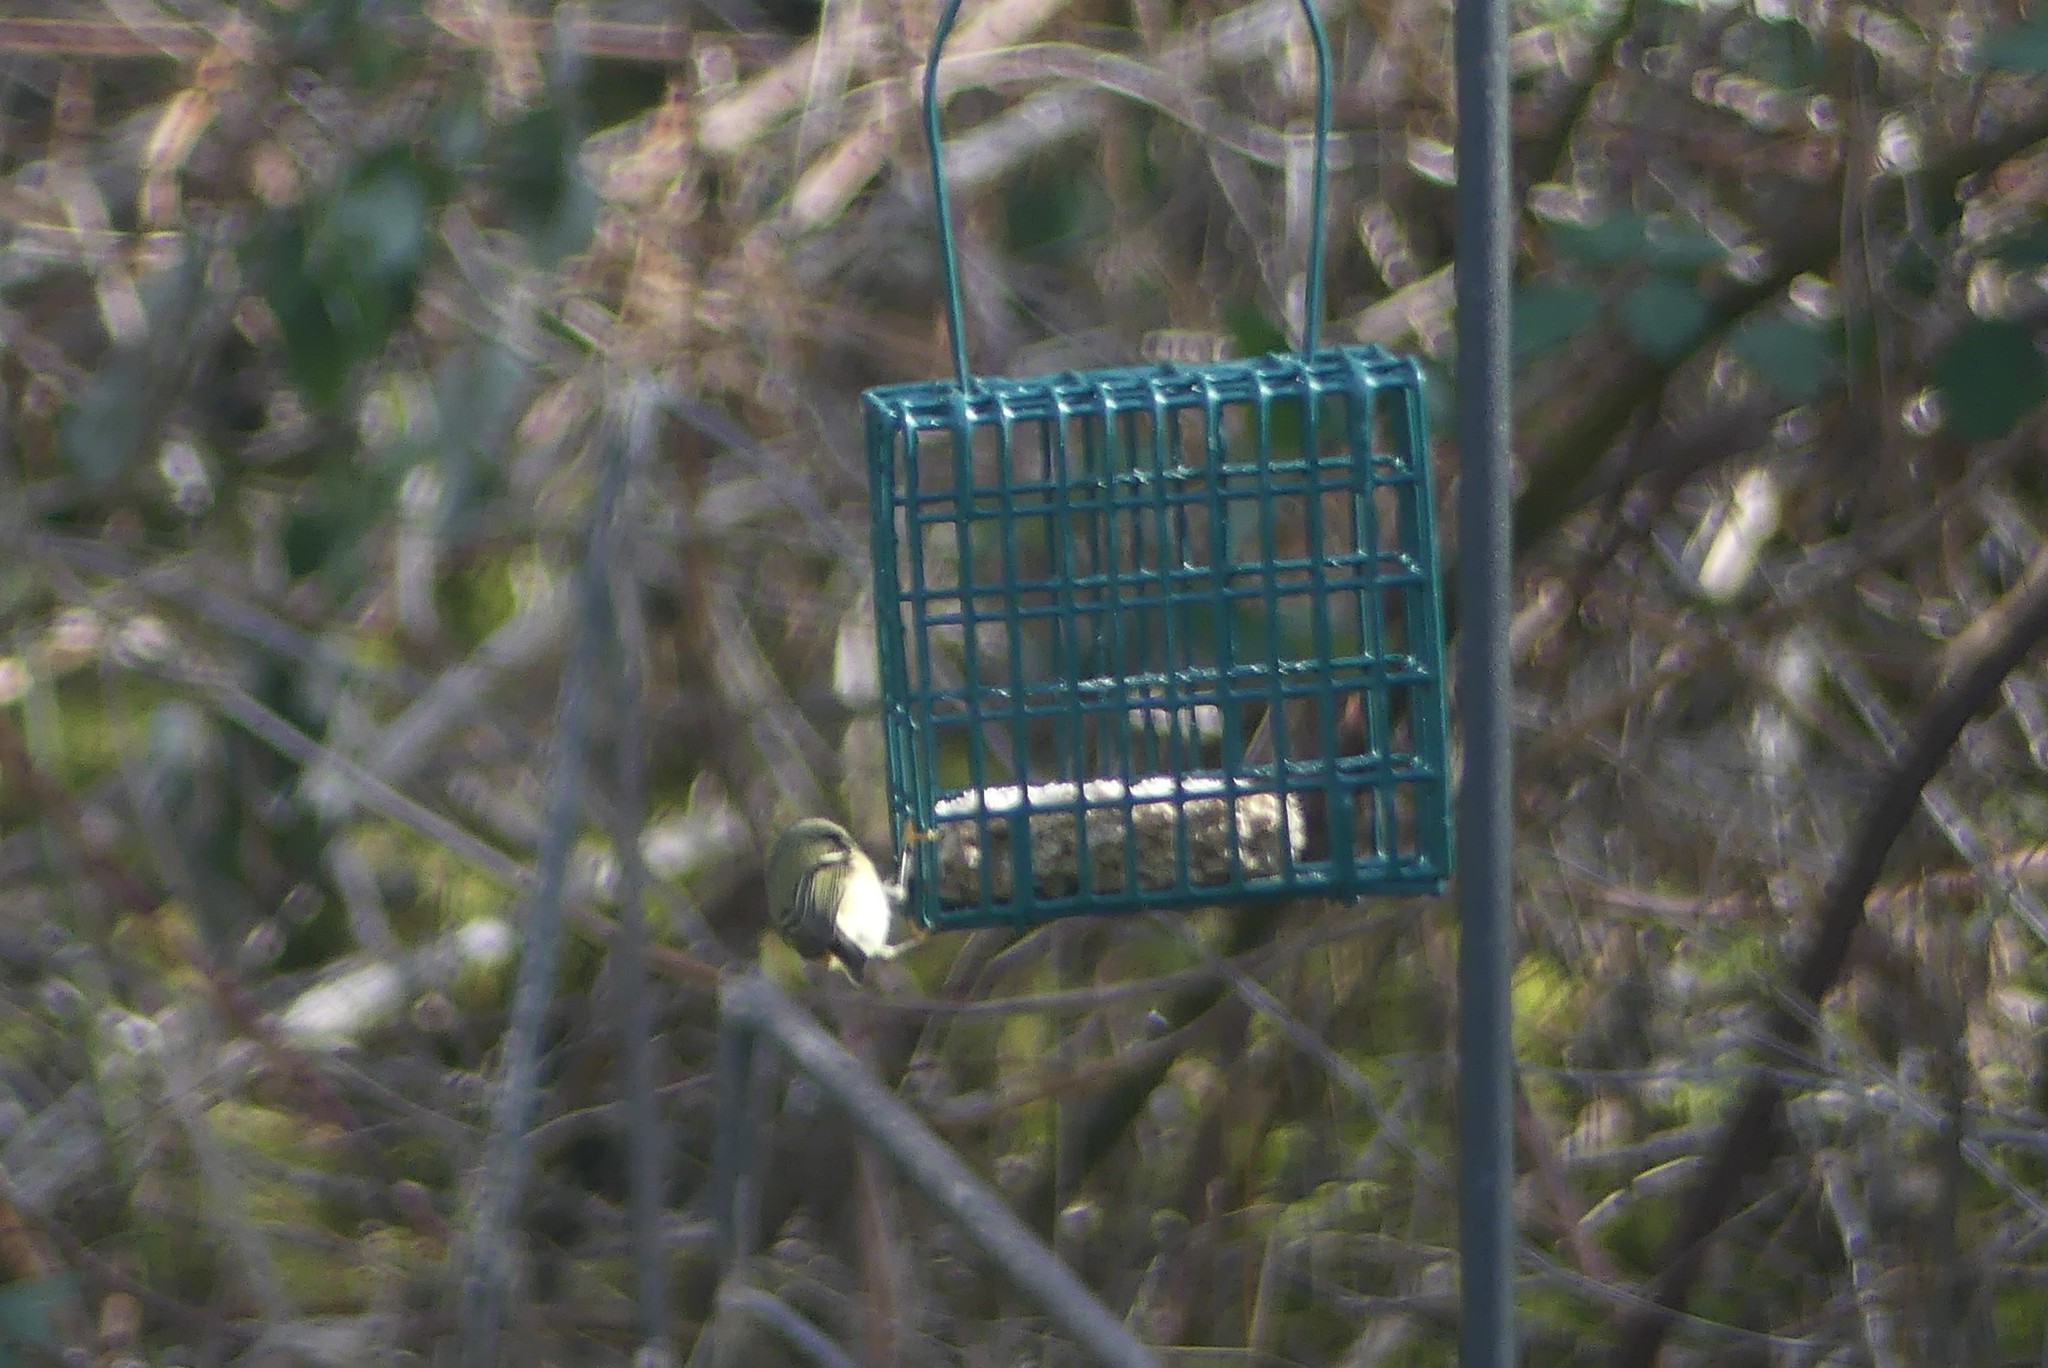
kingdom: Animalia
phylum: Chordata
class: Aves
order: Passeriformes
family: Regulidae
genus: Regulus
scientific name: Regulus calendula
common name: Ruby-crowned kinglet
